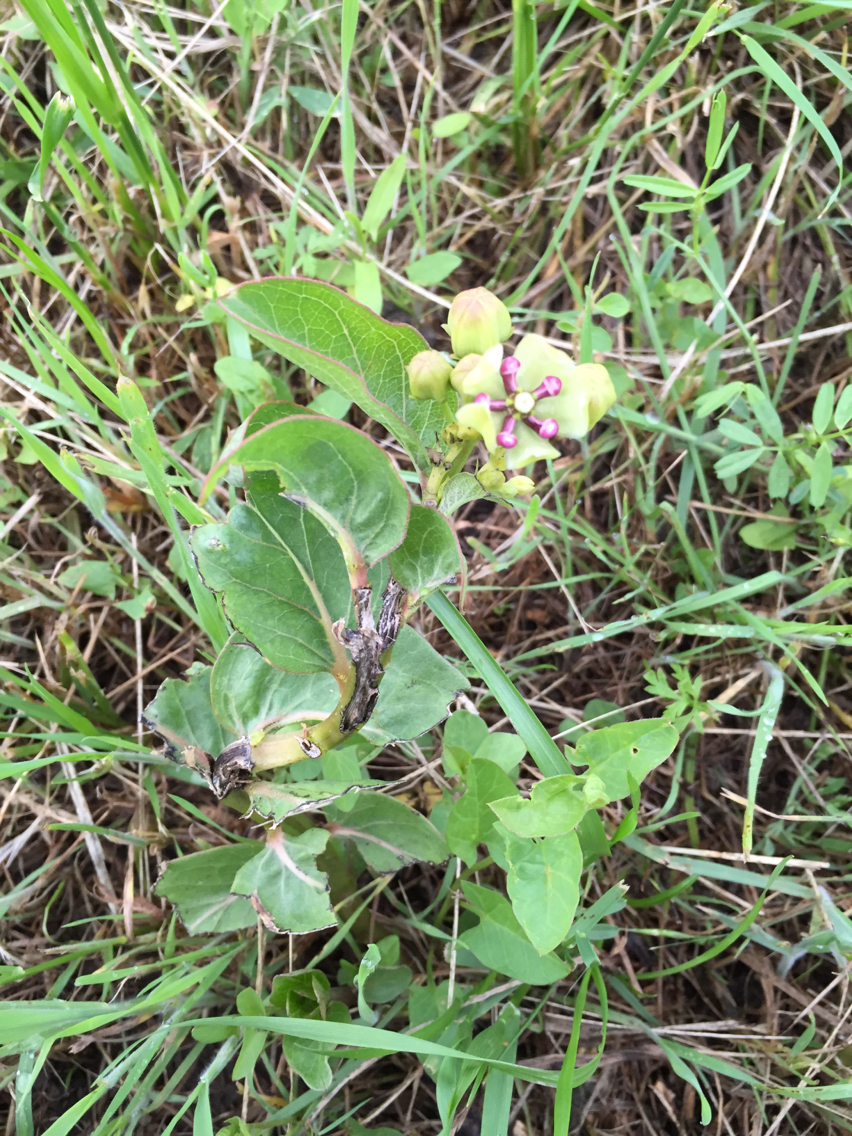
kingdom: Plantae
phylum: Tracheophyta
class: Magnoliopsida
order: Gentianales
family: Apocynaceae
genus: Asclepias
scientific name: Asclepias viridis
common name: Antelope-horns
